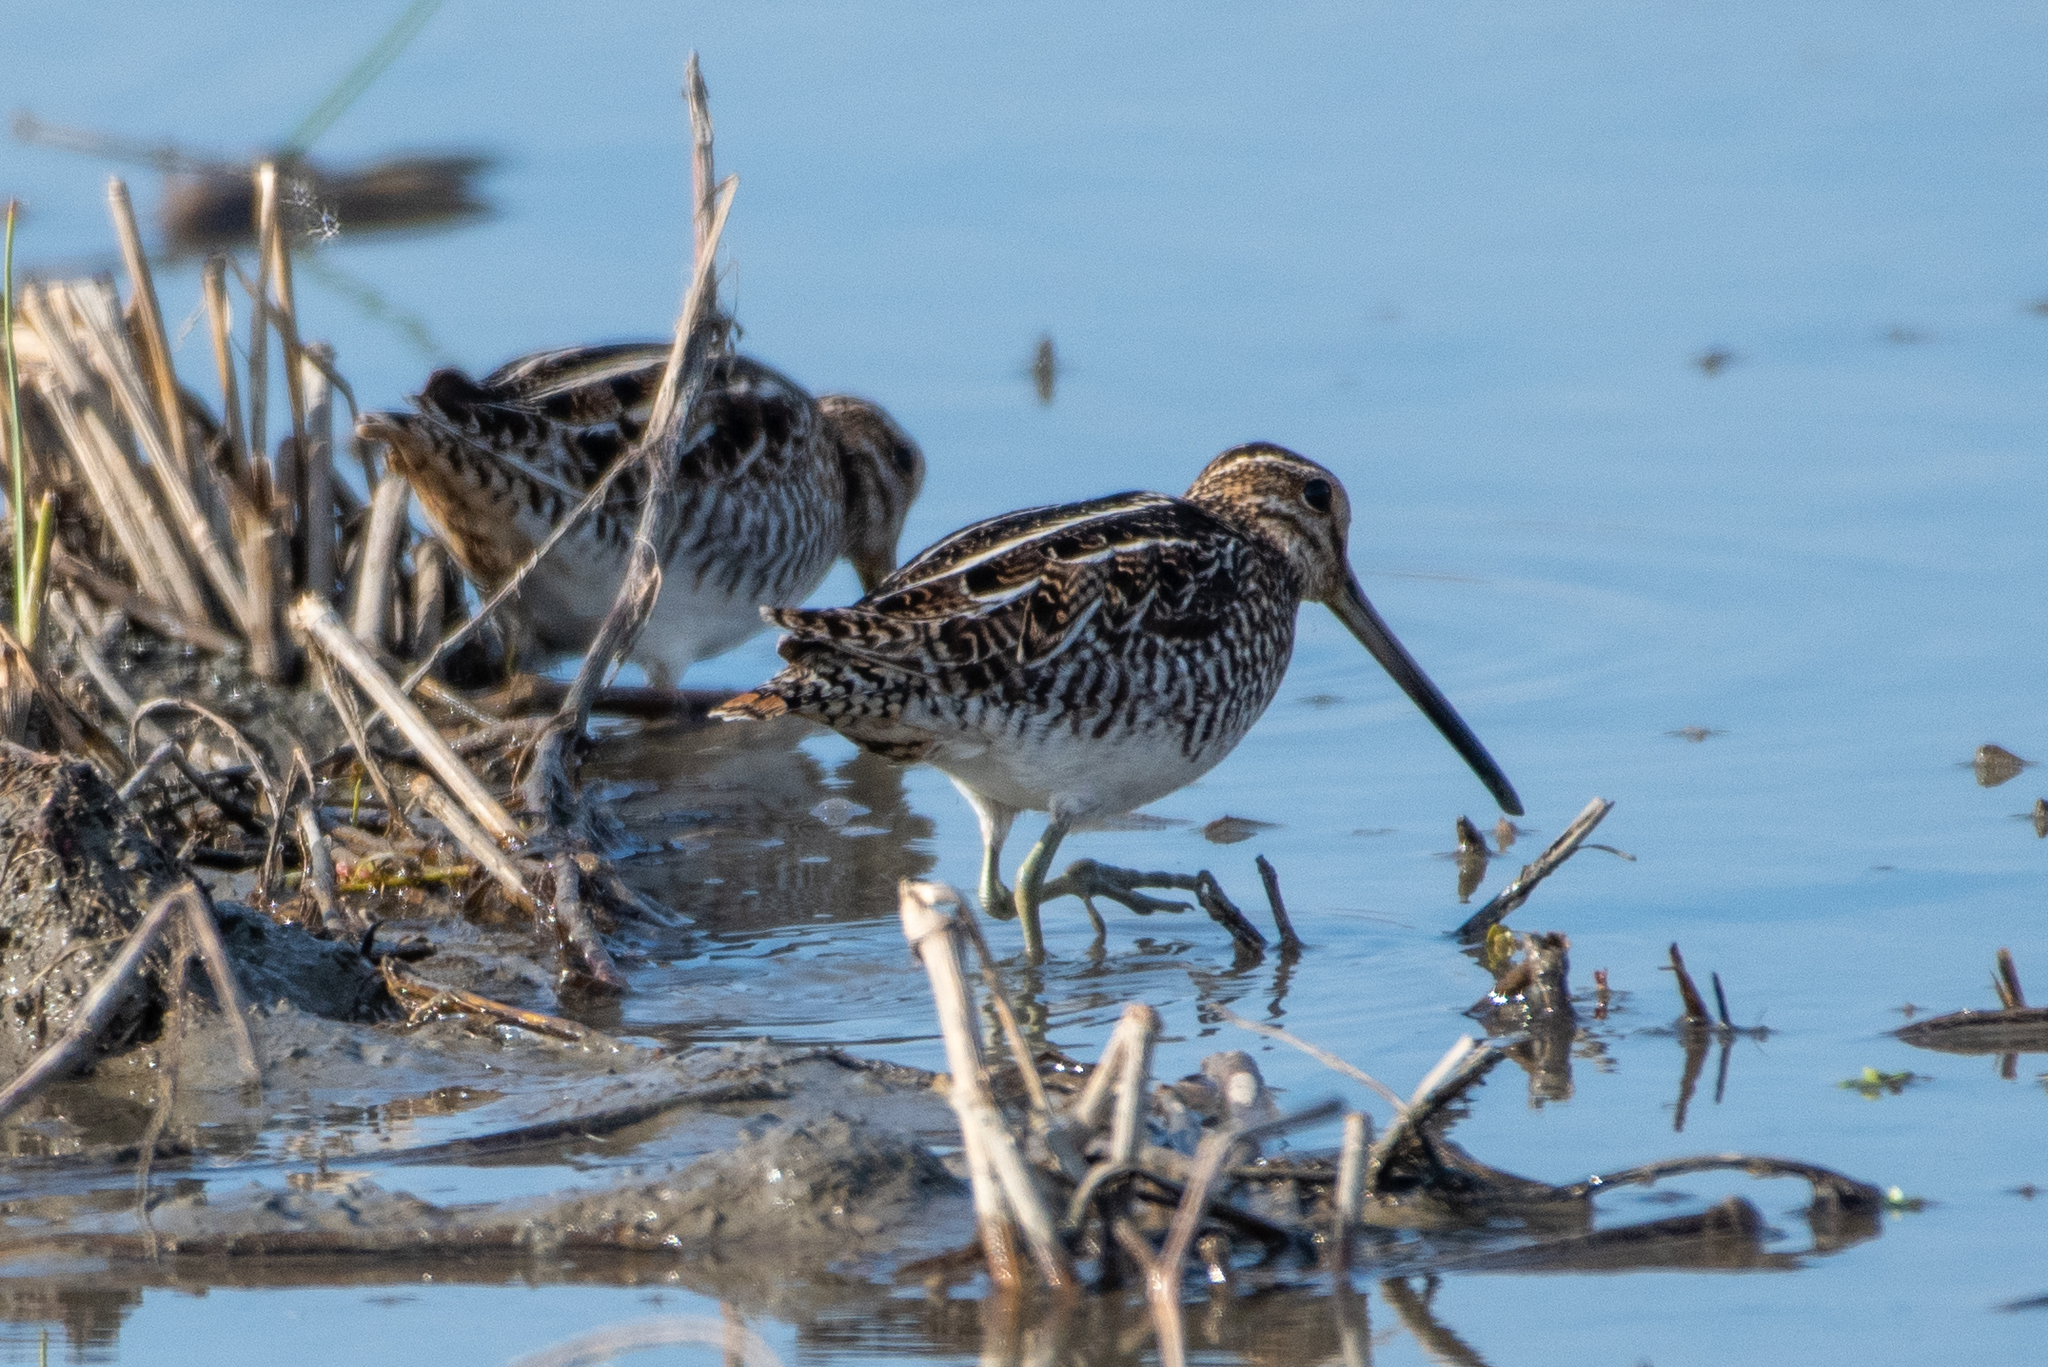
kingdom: Animalia
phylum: Chordata
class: Aves
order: Charadriiformes
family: Scolopacidae
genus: Gallinago
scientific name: Gallinago delicata
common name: Wilson's snipe
